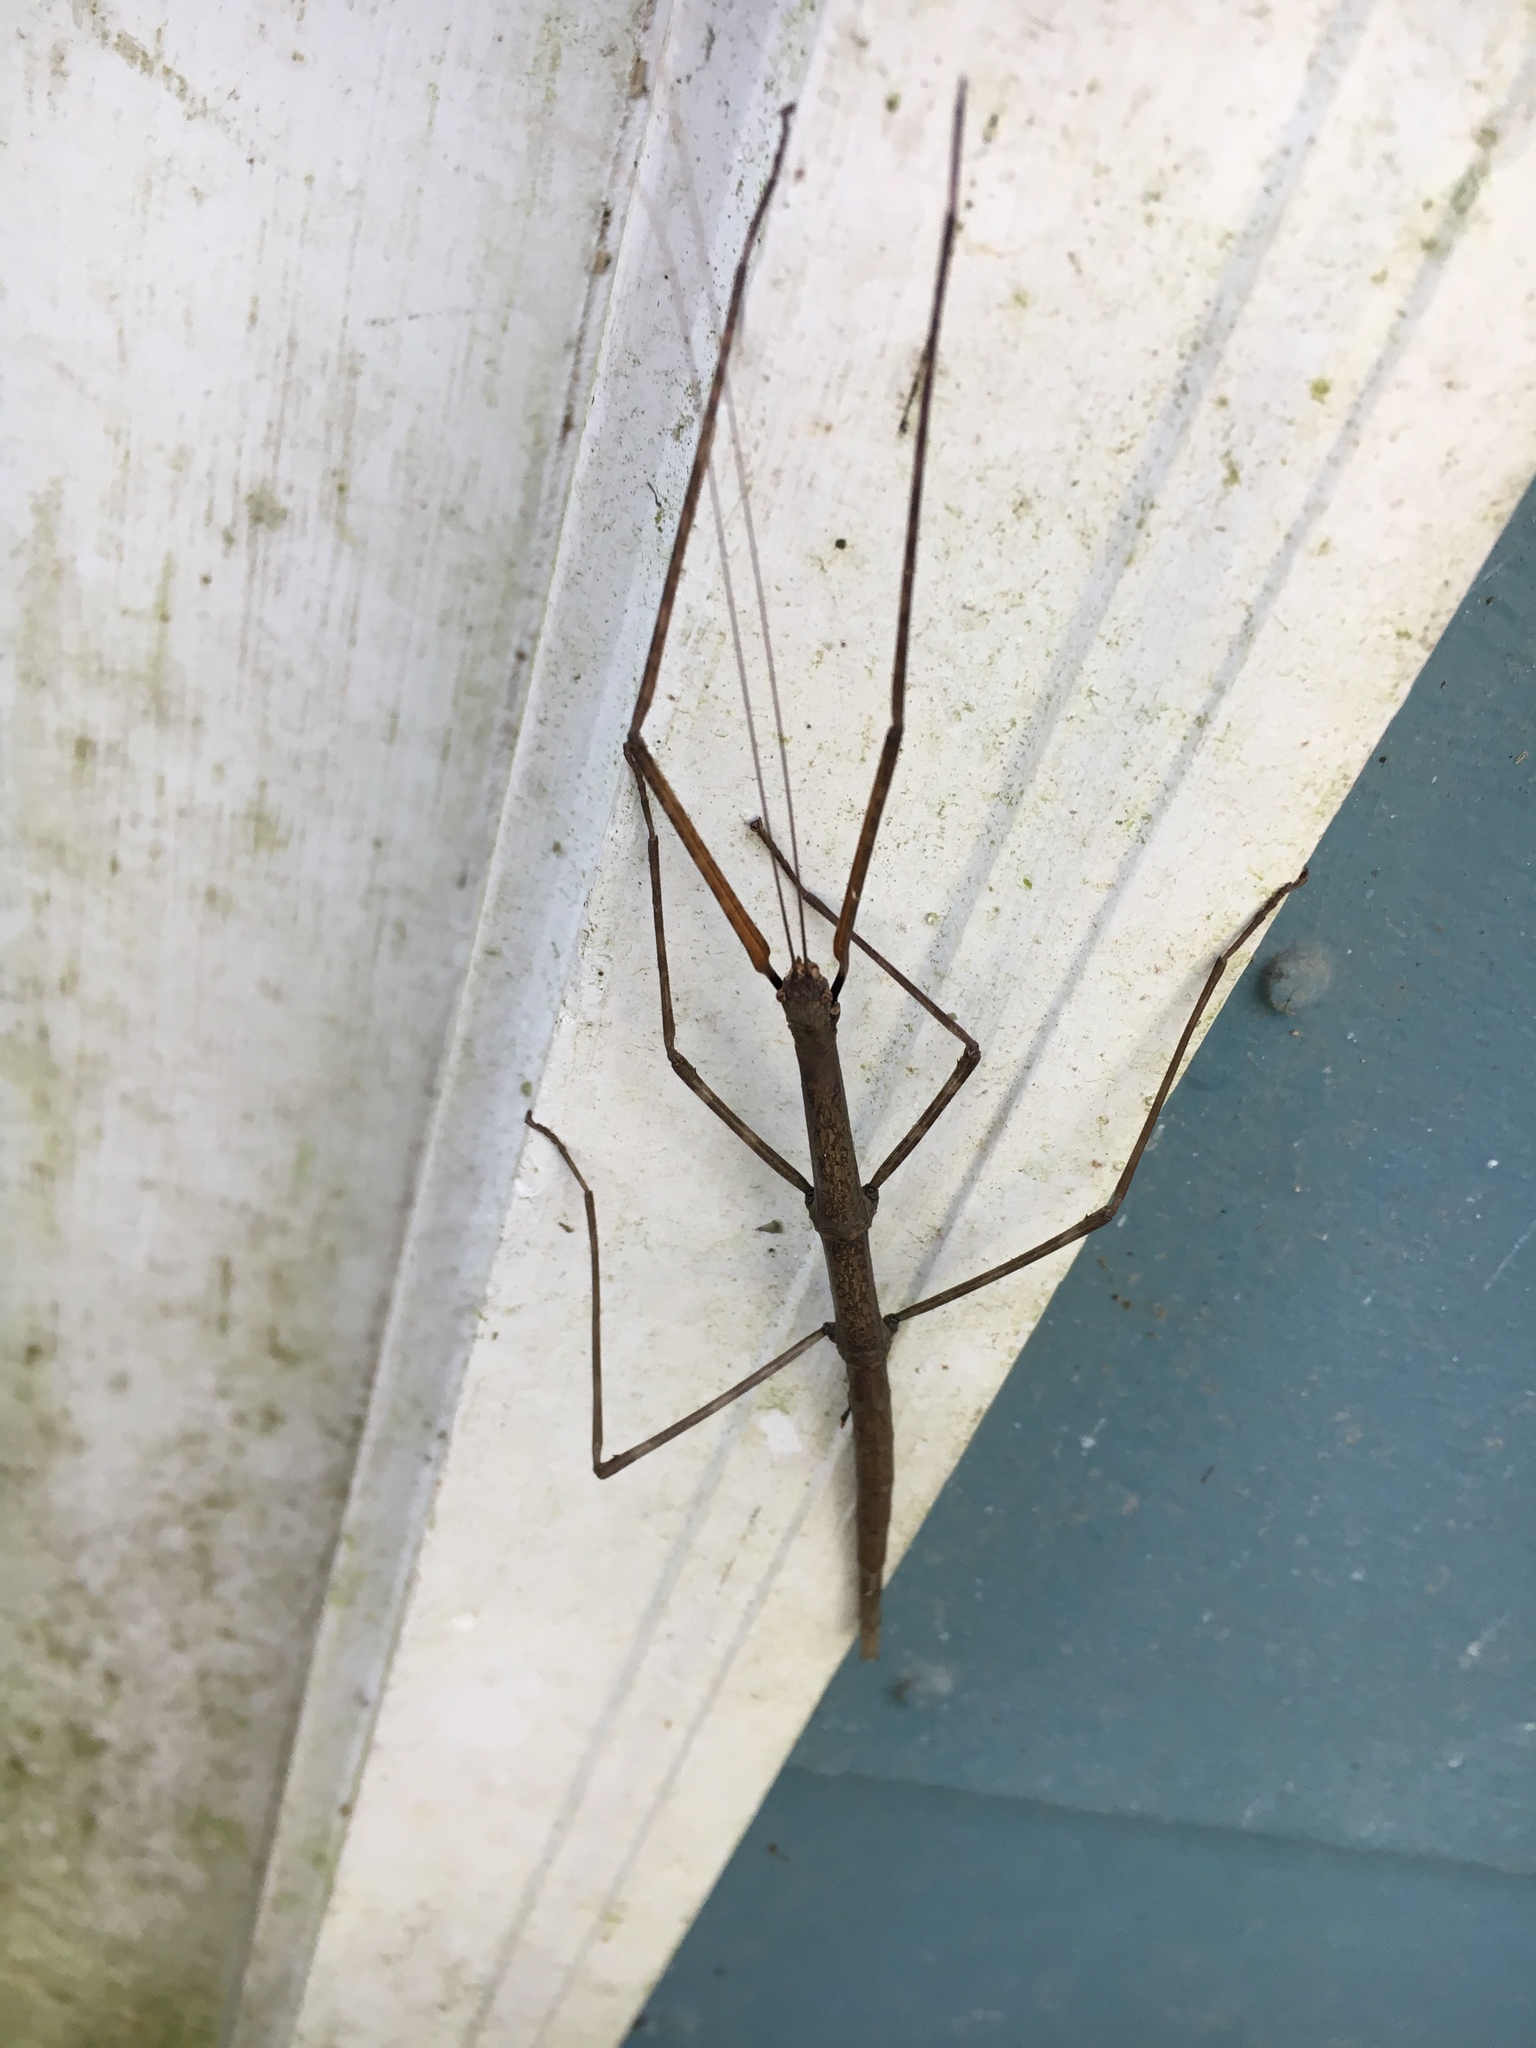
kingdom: Animalia
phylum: Arthropoda
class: Insecta
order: Phasmida
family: Diapheromeridae
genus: Diapheromera
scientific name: Diapheromera femorata
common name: Common american walkingstick
